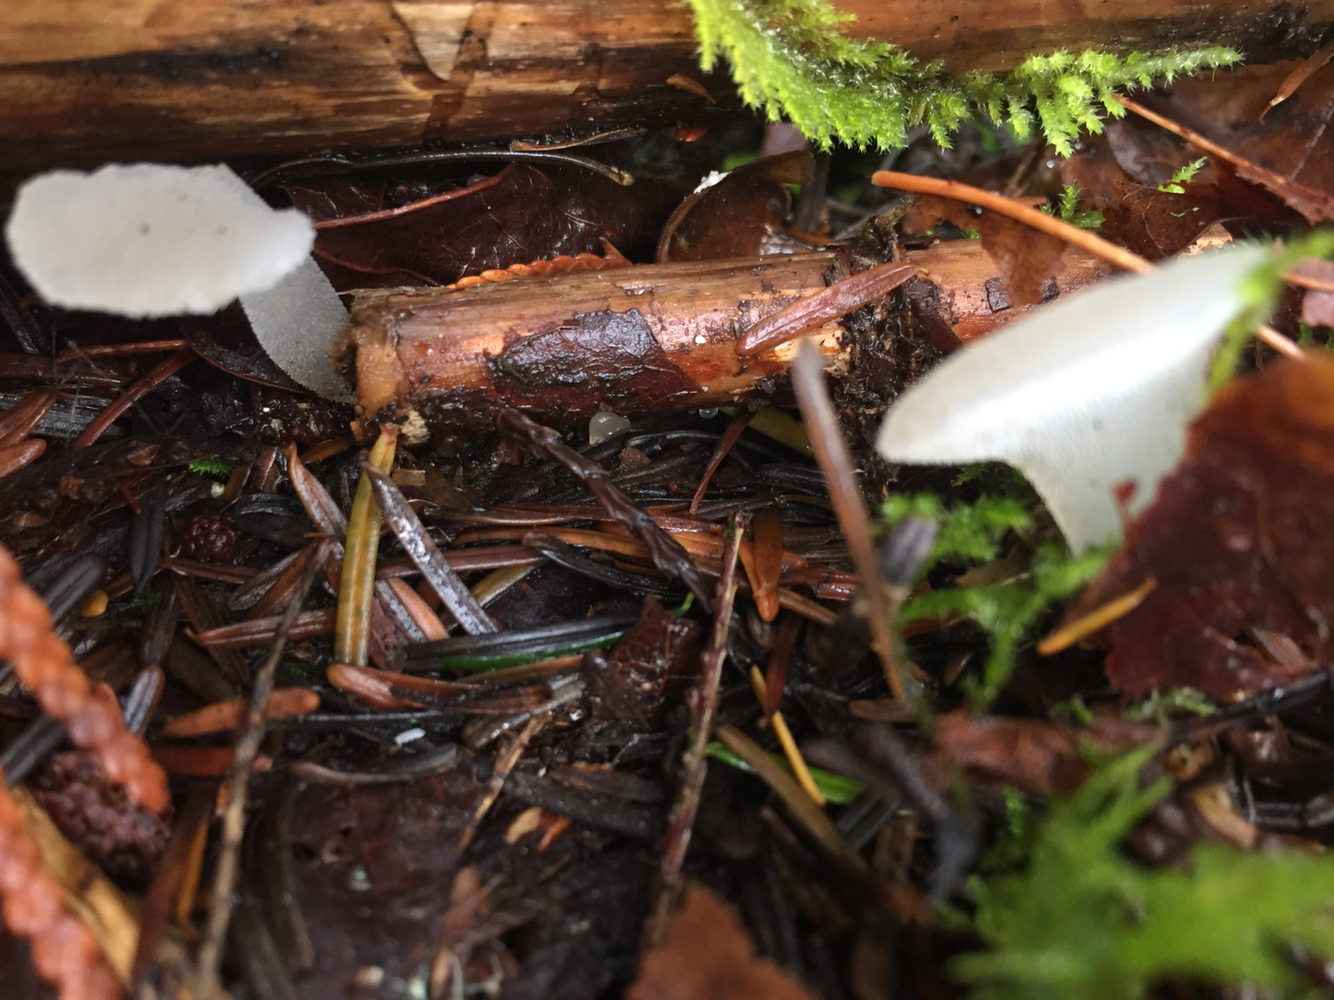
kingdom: Fungi
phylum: Basidiomycota
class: Agaricomycetes
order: Auriculariales
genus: Pseudohydnum
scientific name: Pseudohydnum gelatinosum
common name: Jelly tongue
